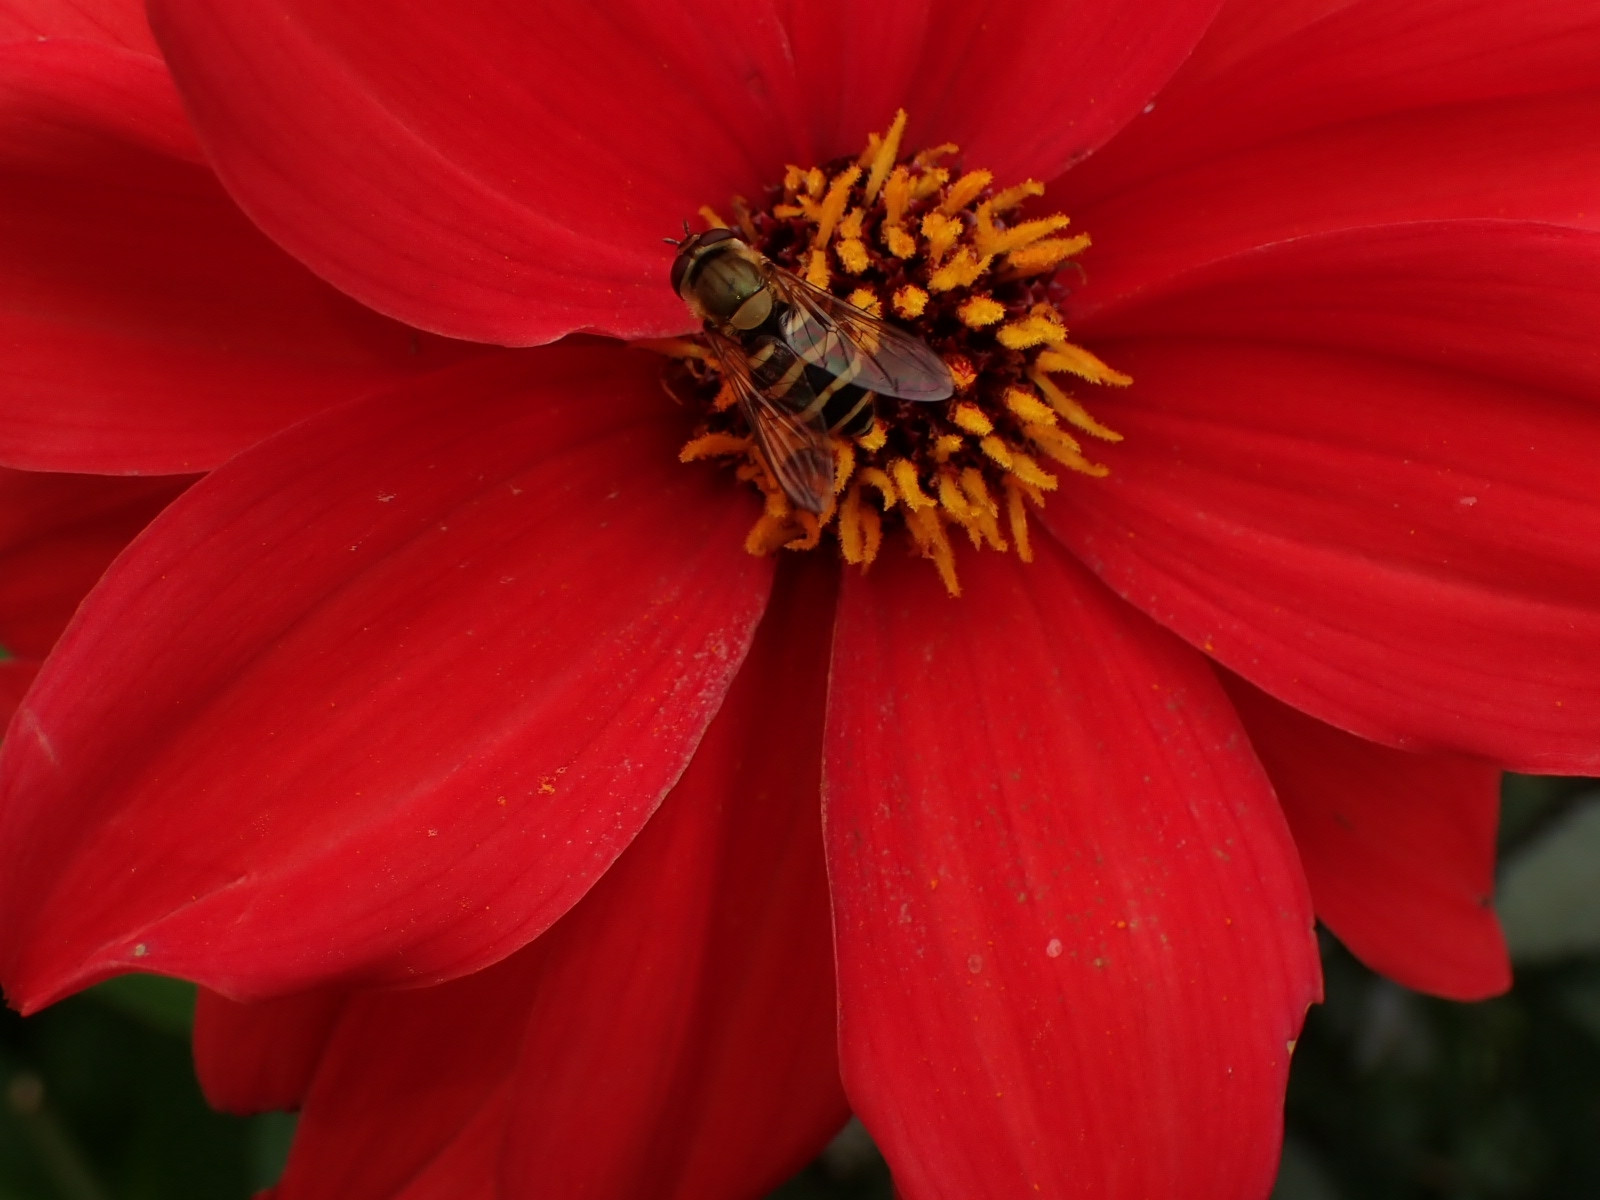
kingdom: Animalia
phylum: Arthropoda
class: Insecta
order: Diptera
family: Syrphidae
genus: Syrphus
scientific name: Syrphus
